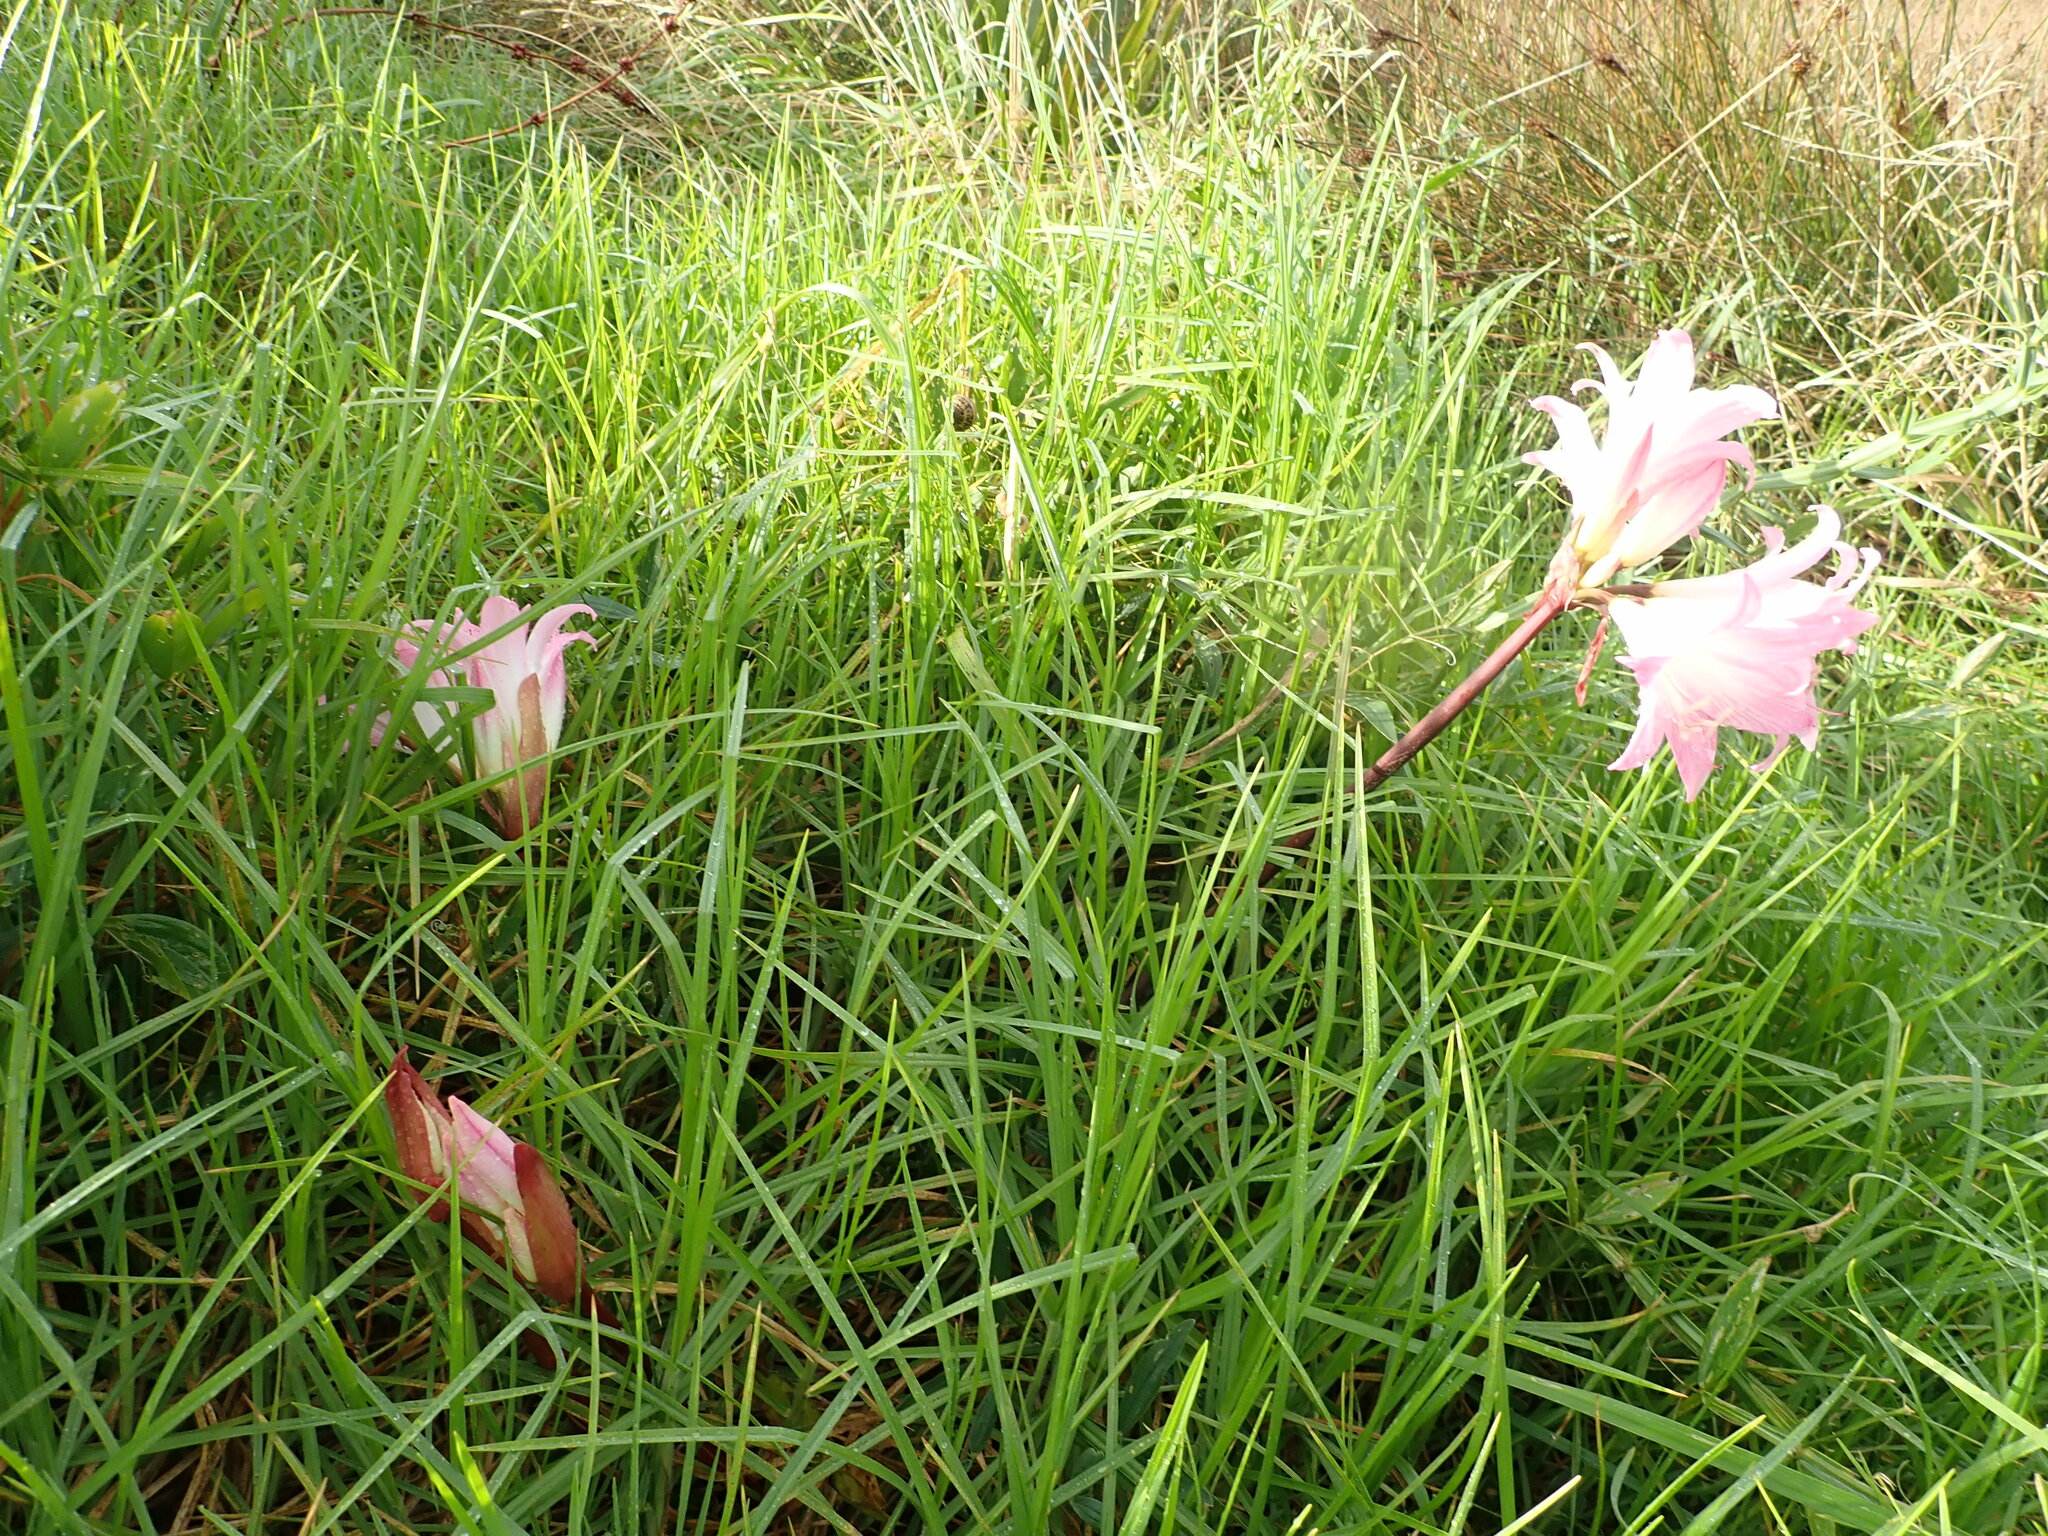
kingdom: Plantae
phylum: Tracheophyta
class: Liliopsida
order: Asparagales
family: Amaryllidaceae
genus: Amaryllis
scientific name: Amaryllis belladonna
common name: Jersey lily
